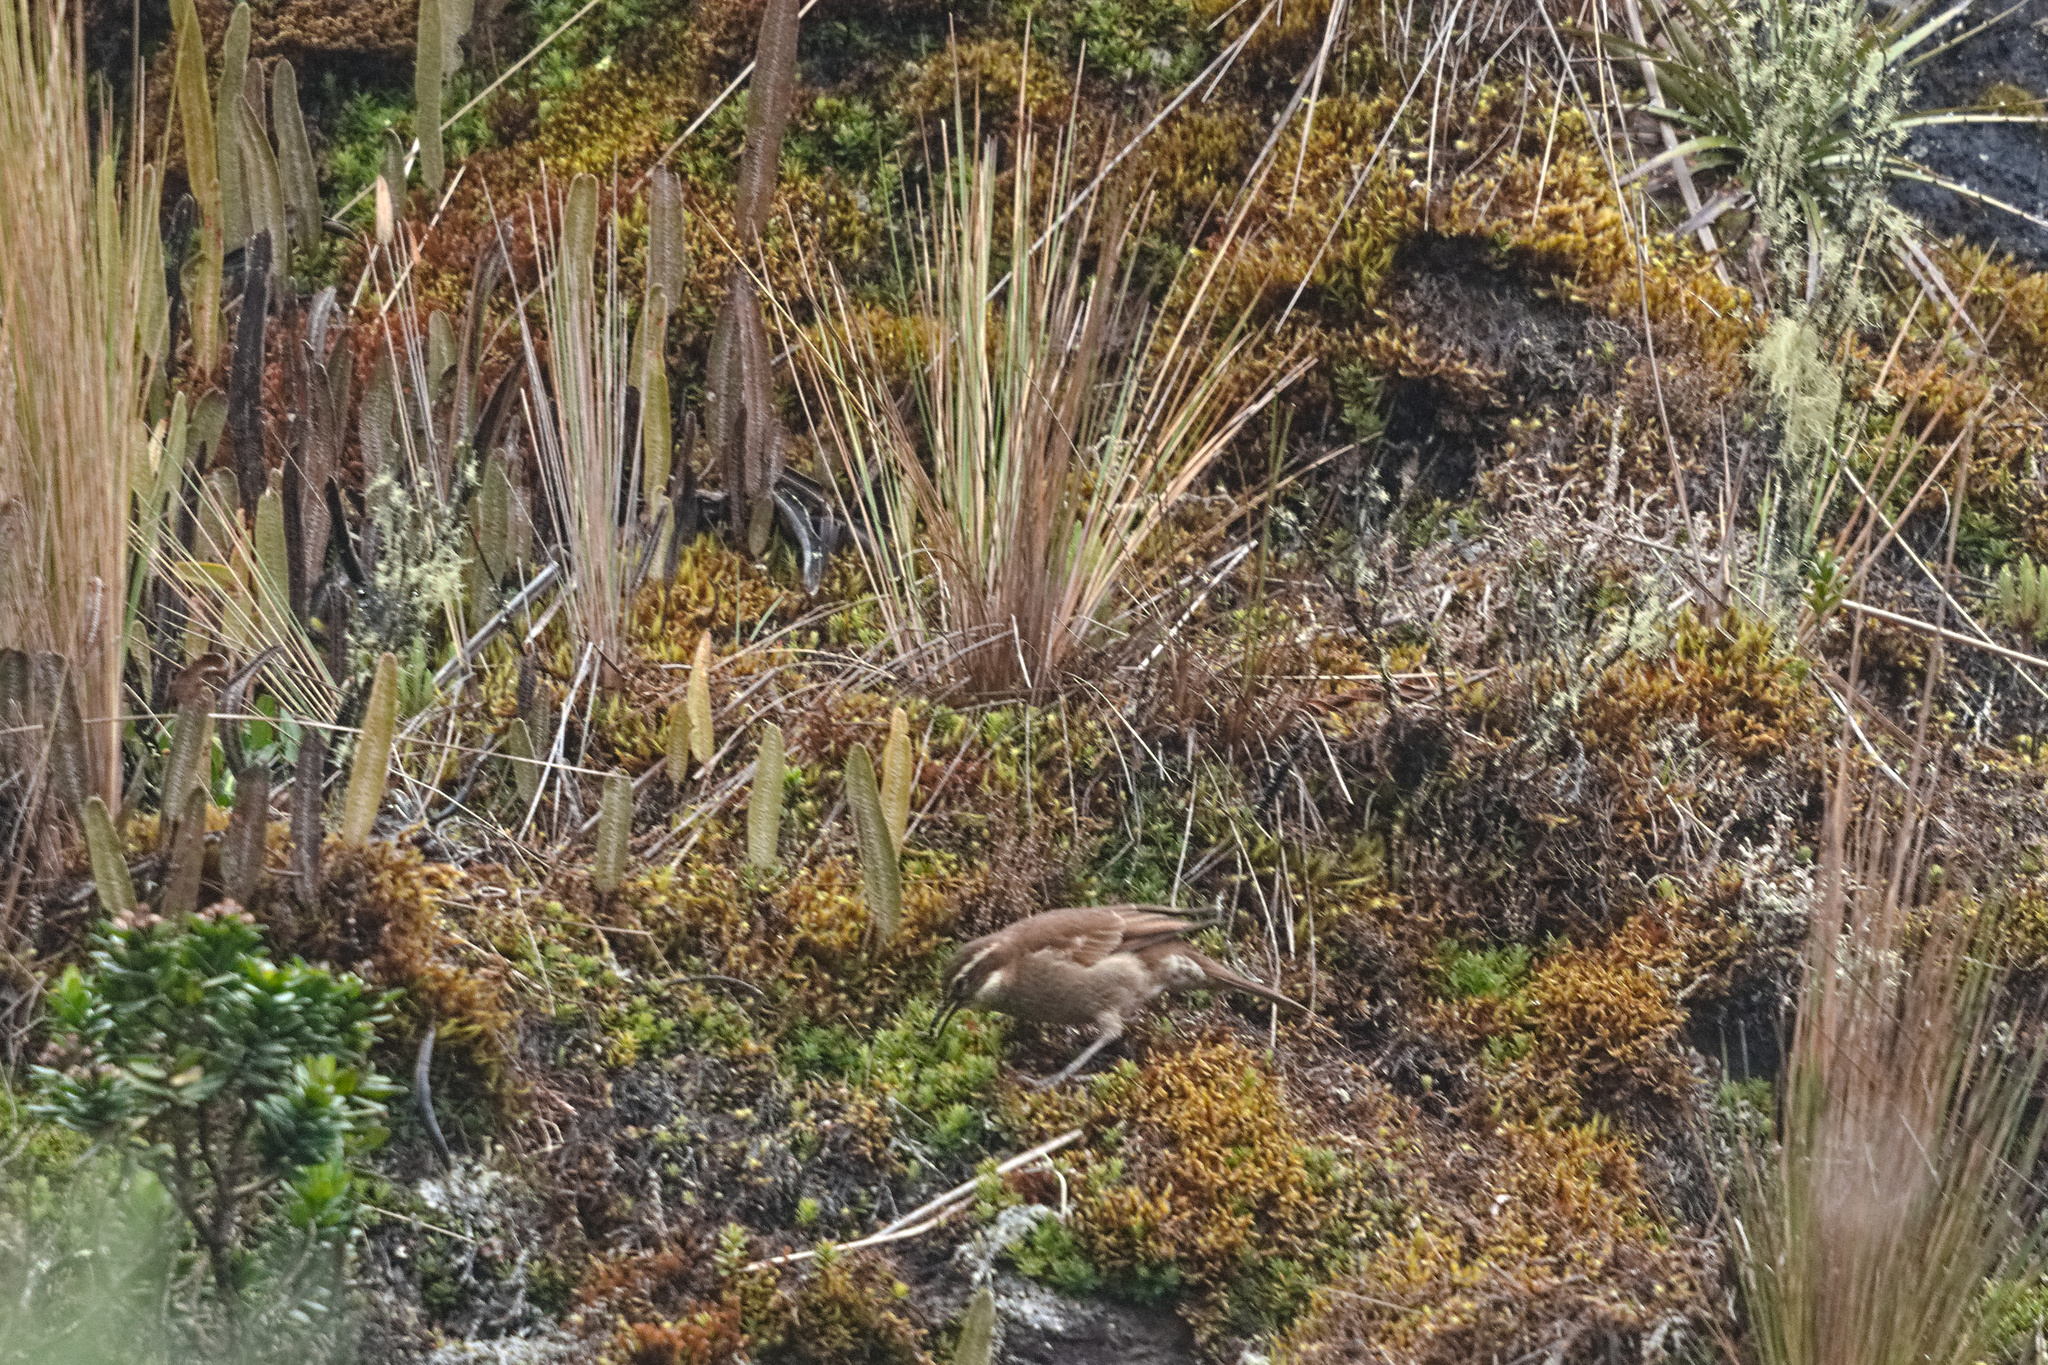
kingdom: Animalia
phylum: Chordata
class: Aves
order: Passeriformes
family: Furnariidae
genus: Cinclodes
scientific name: Cinclodes excelsior
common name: Stout-billed cinclodes
